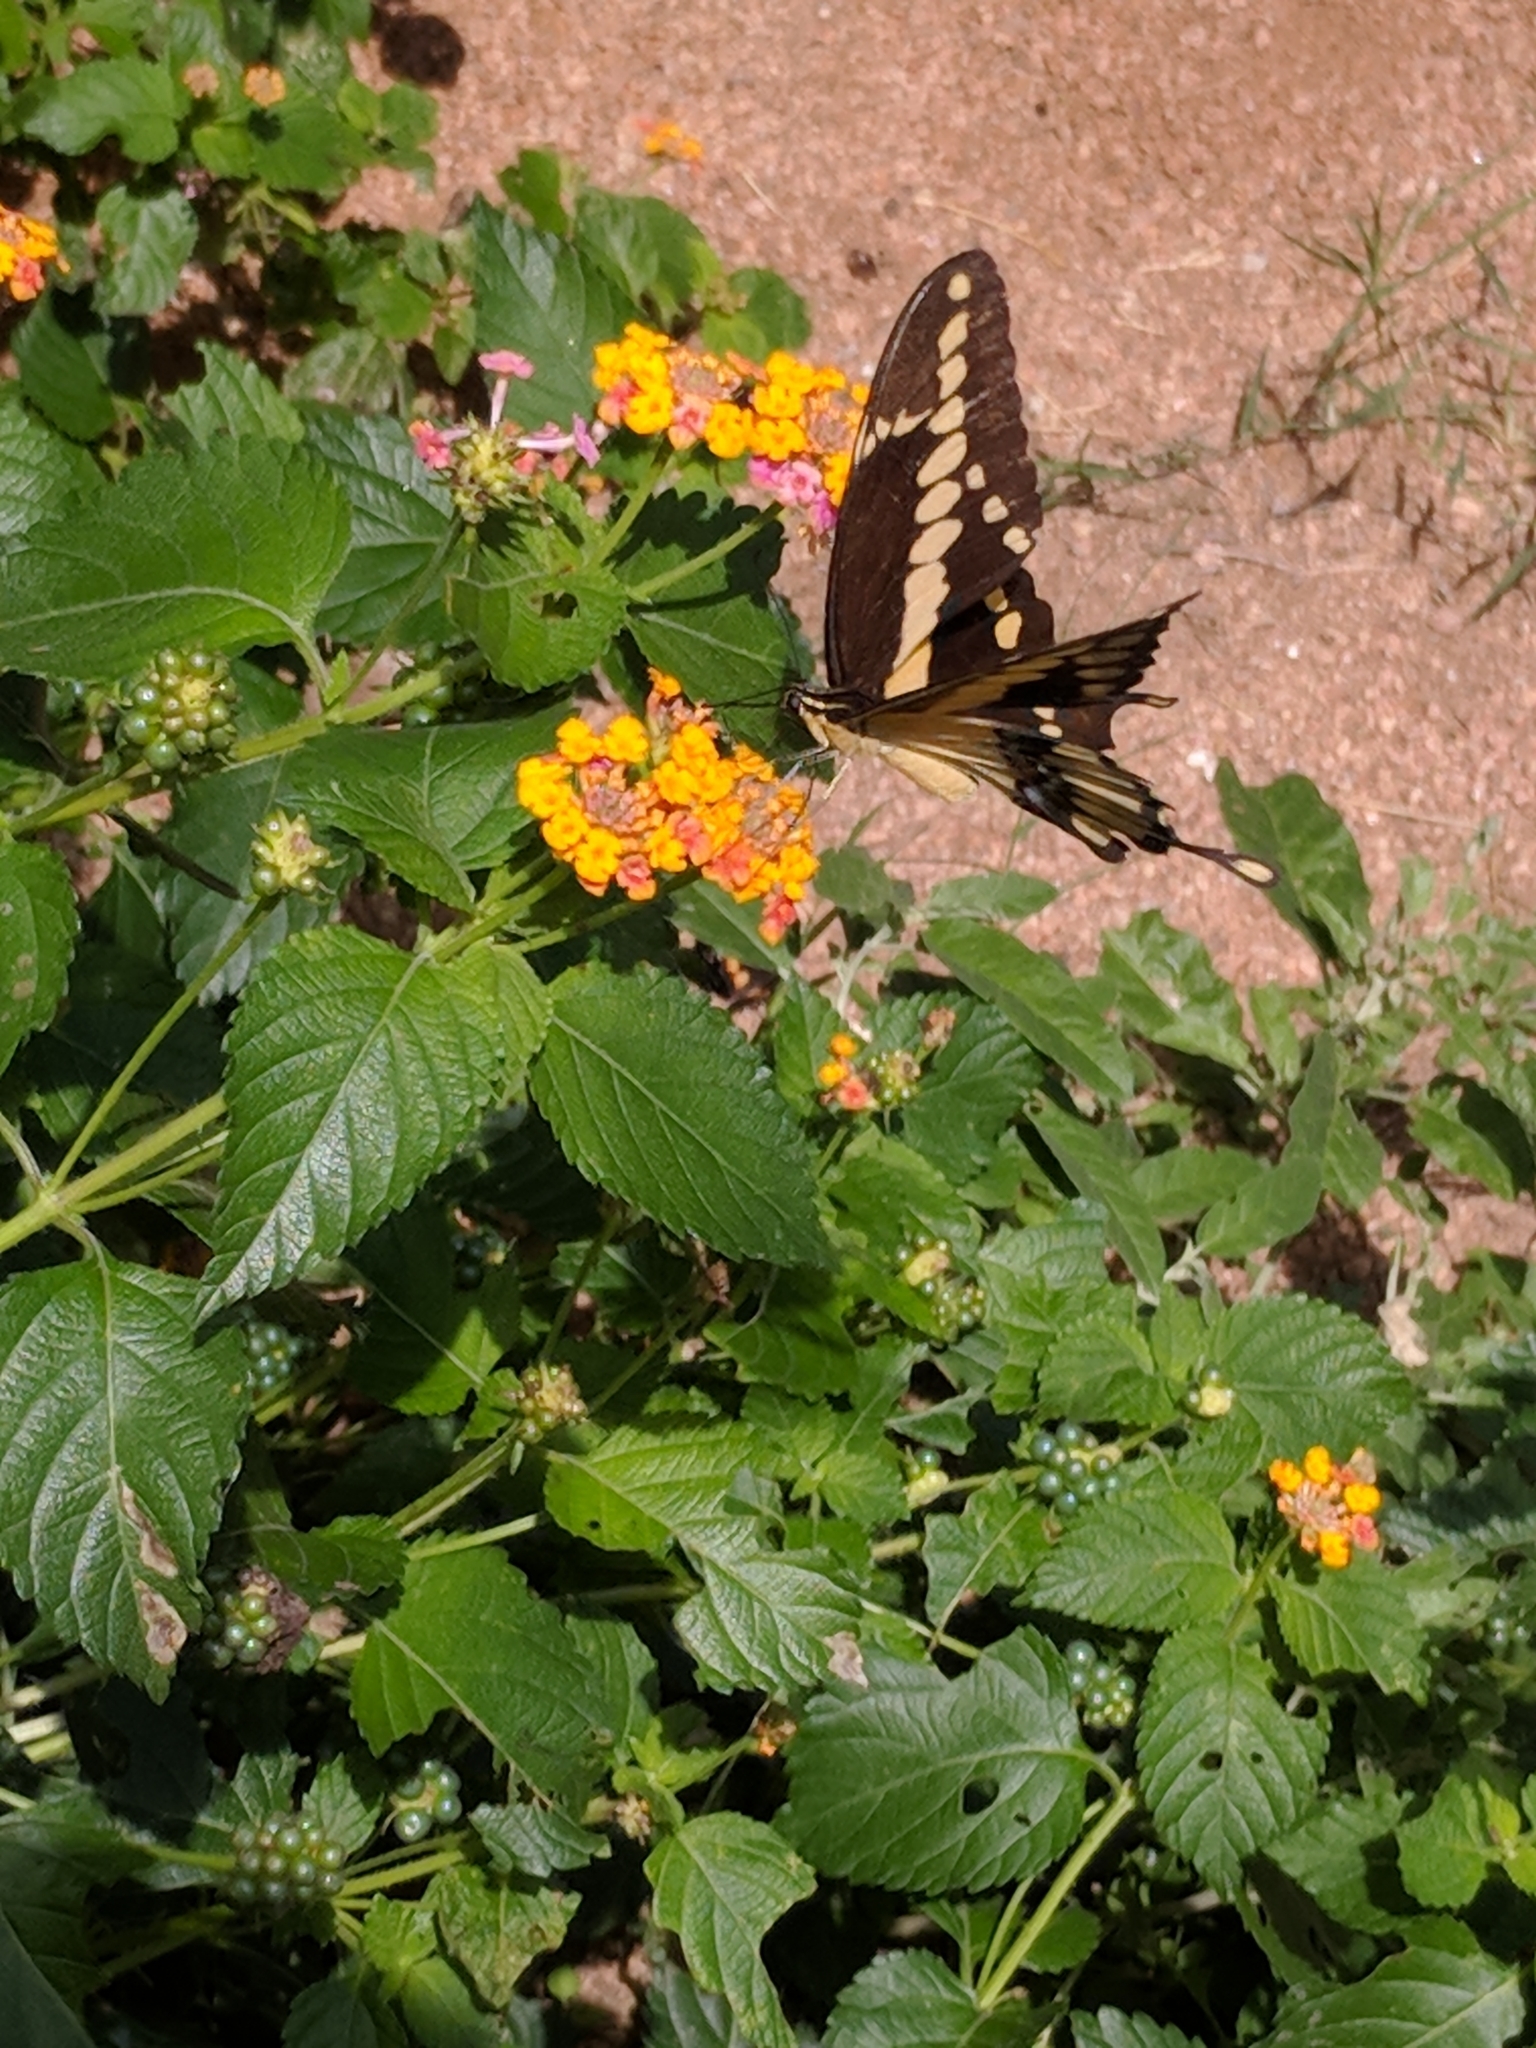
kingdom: Animalia
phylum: Arthropoda
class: Insecta
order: Lepidoptera
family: Papilionidae
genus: Papilio
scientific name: Papilio rumiko
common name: Western giant swallowtail
